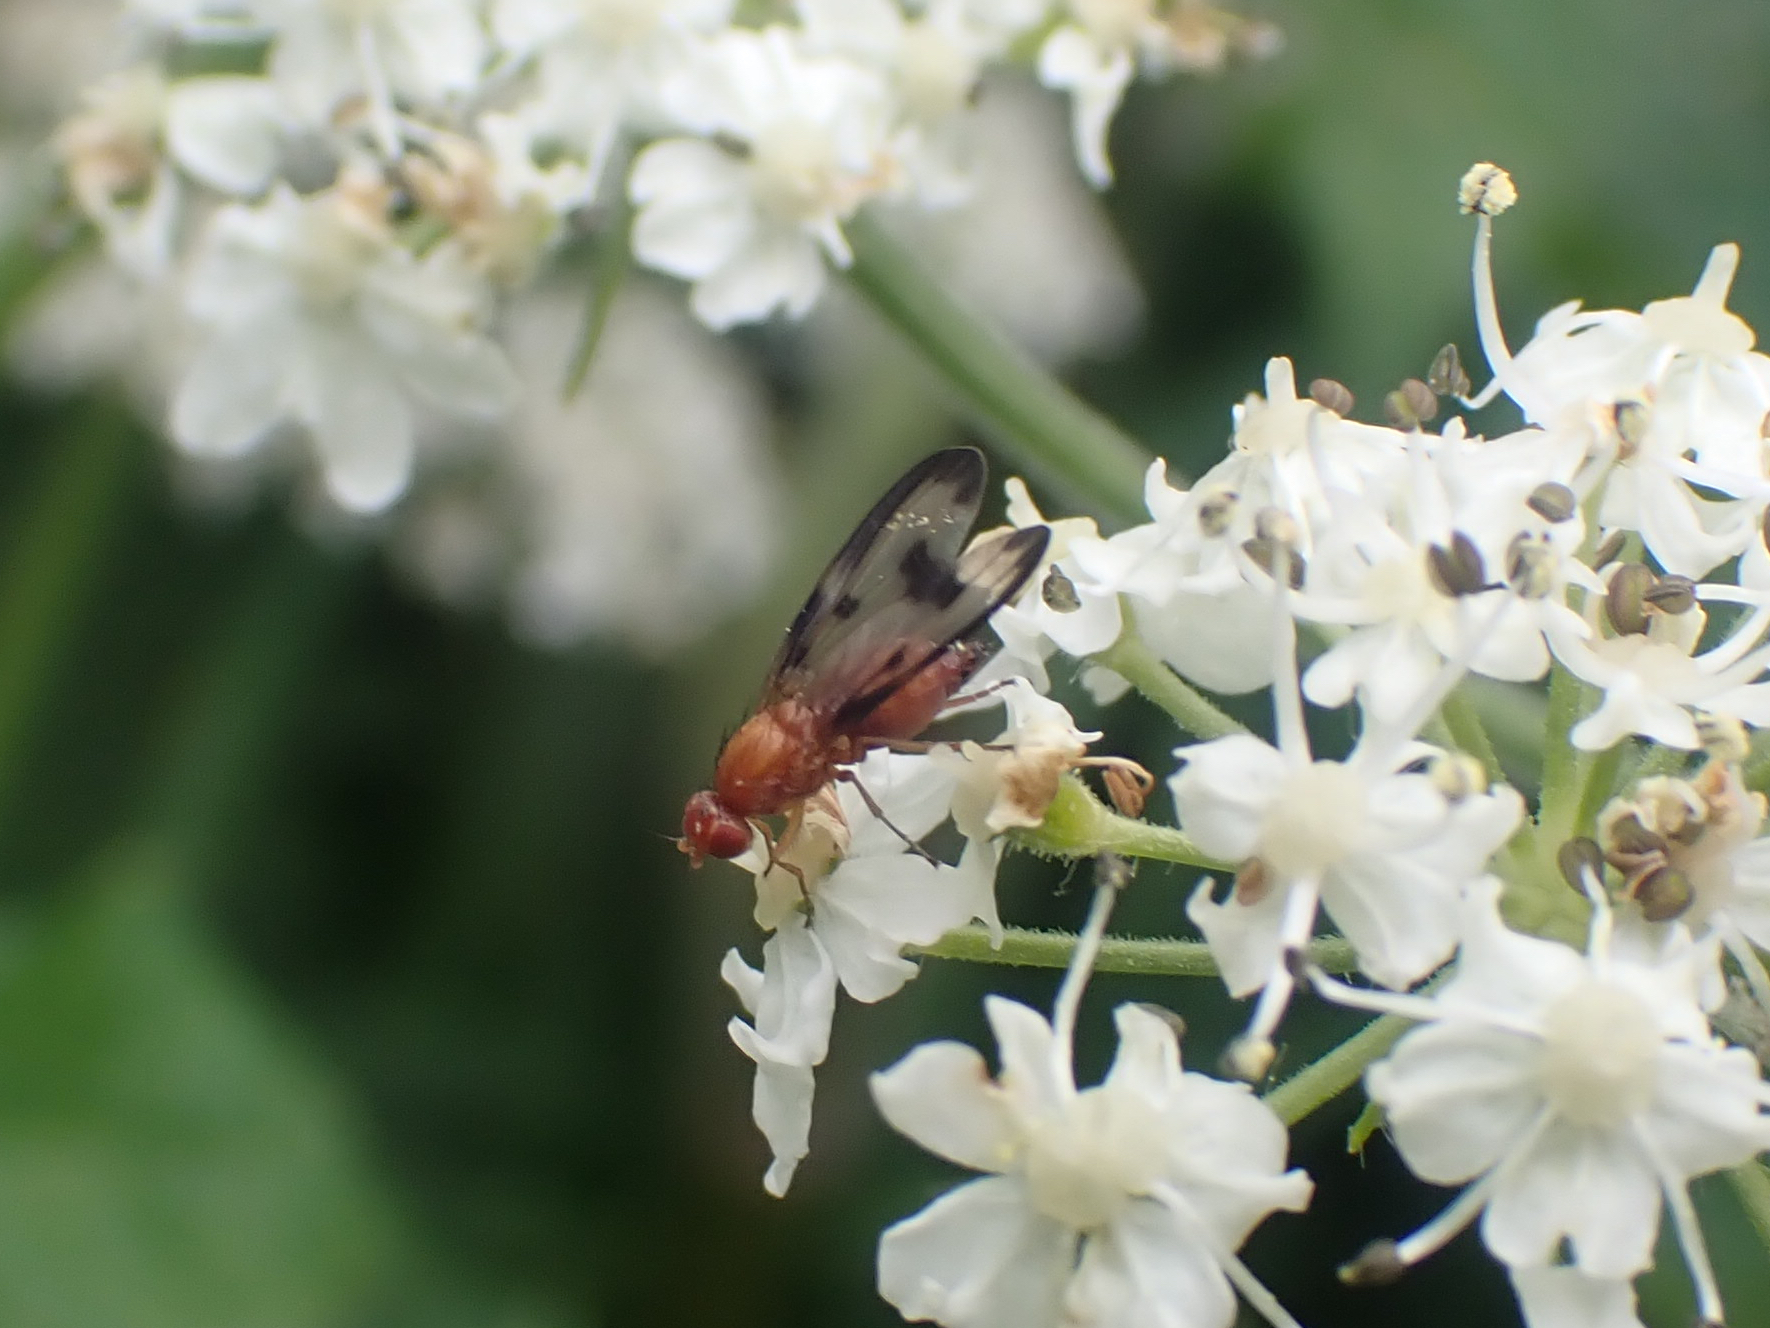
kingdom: Animalia
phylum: Arthropoda
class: Insecta
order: Diptera
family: Pallopteridae
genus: Toxonevra
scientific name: Toxonevra jucunda
